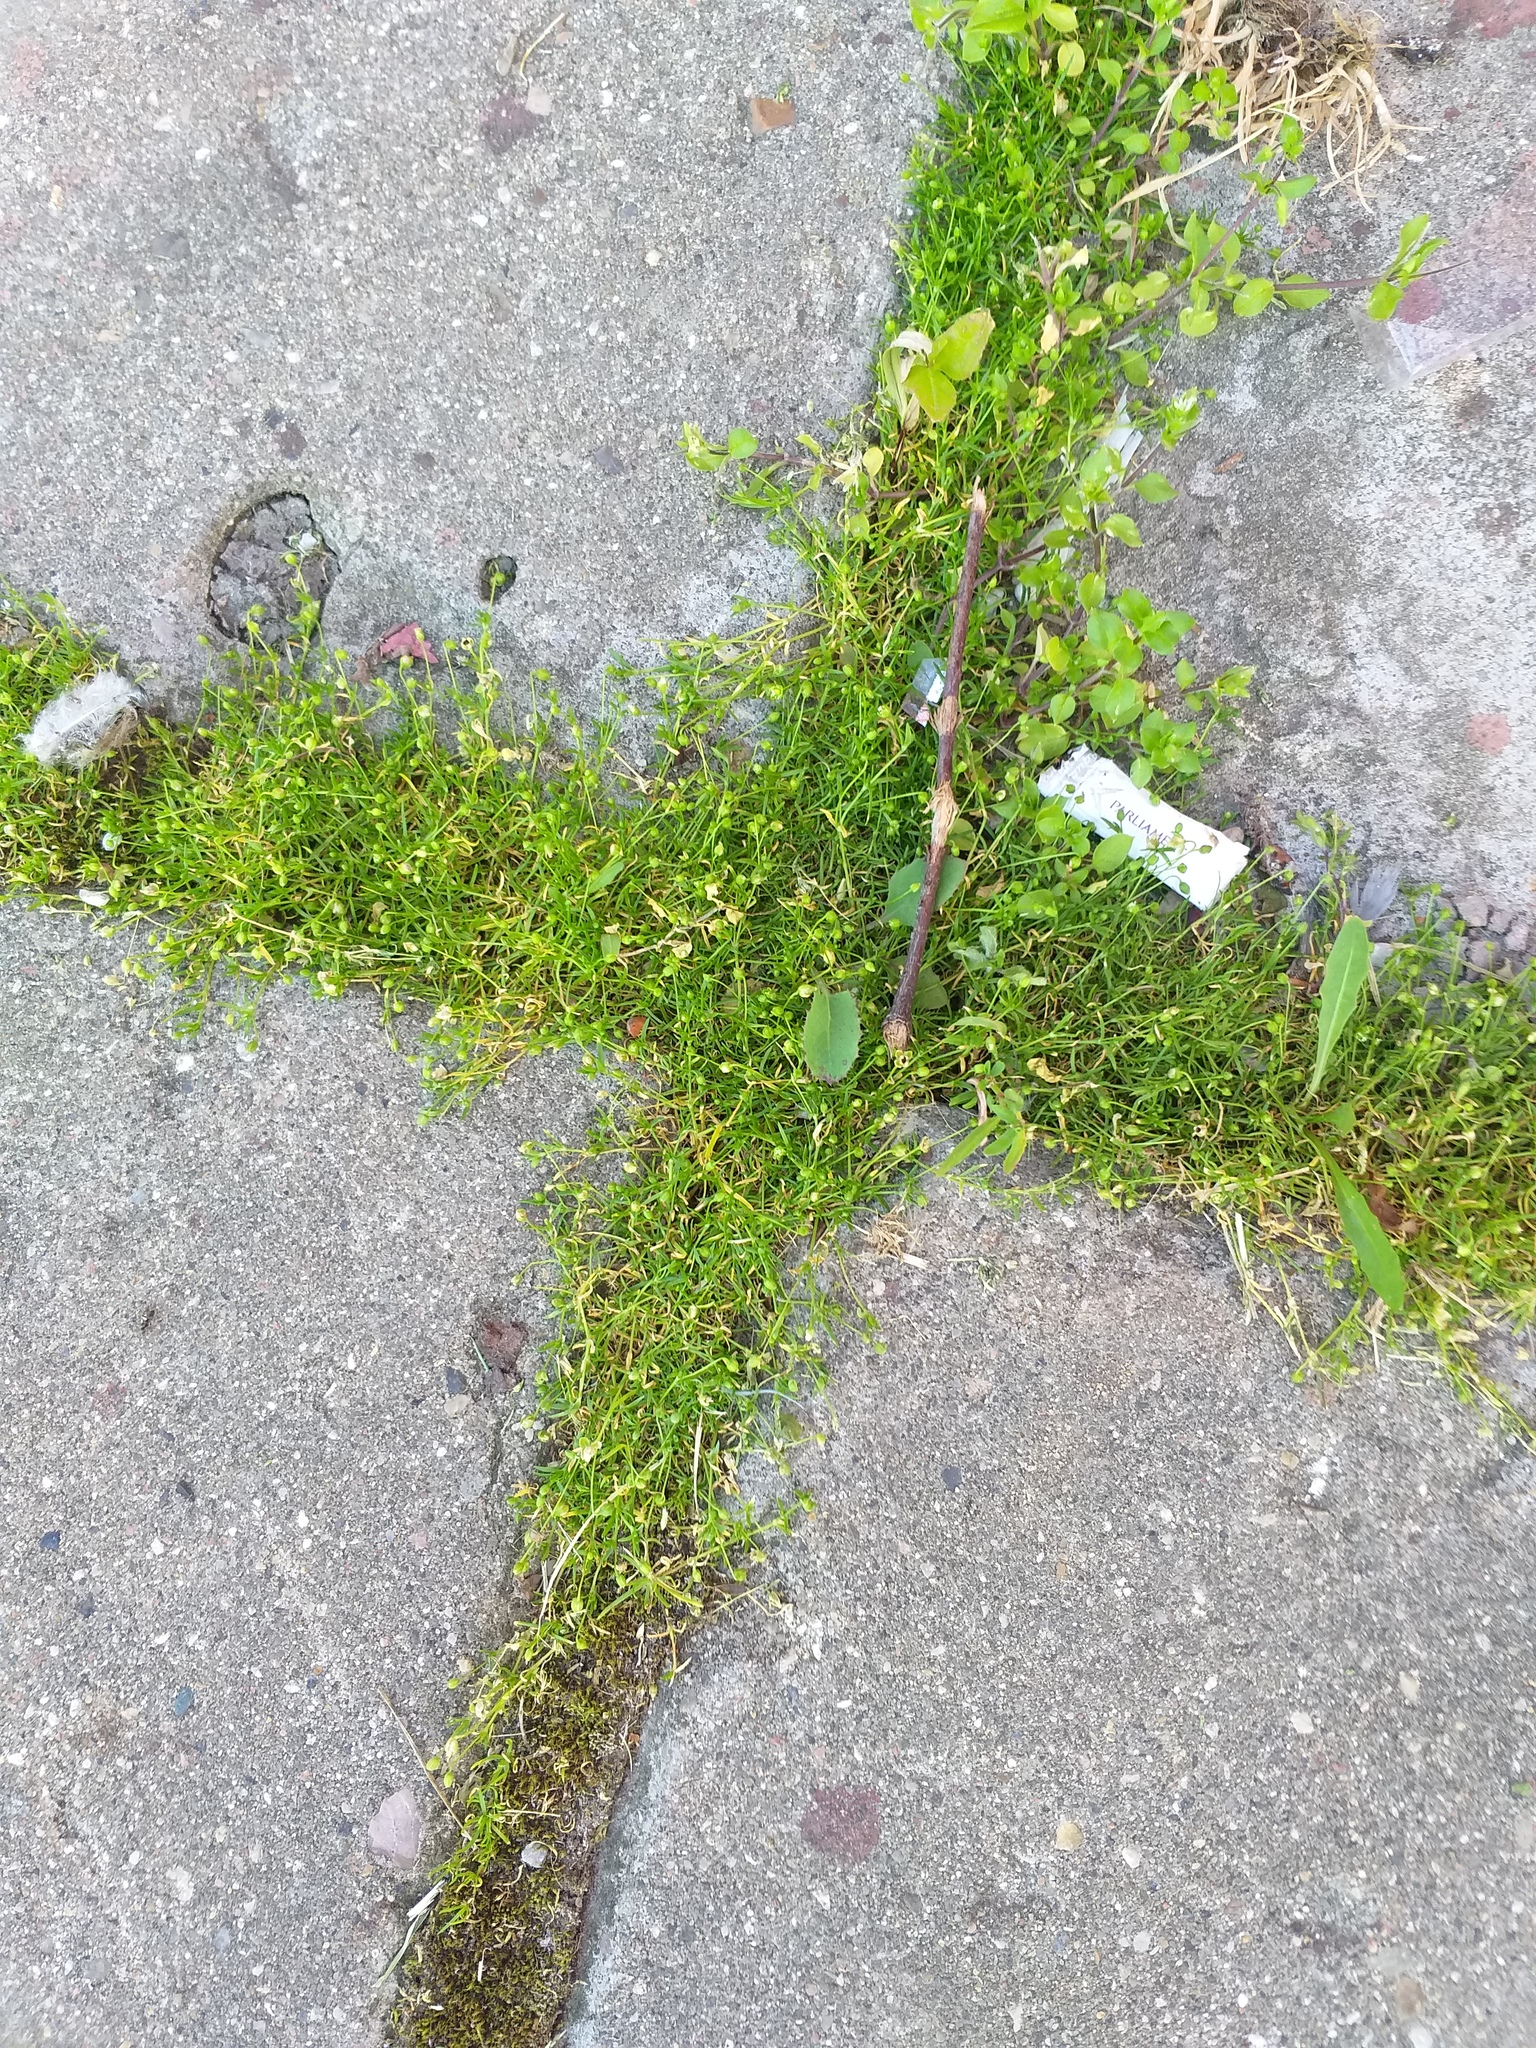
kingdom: Plantae
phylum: Tracheophyta
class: Magnoliopsida
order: Caryophyllales
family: Caryophyllaceae
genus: Sagina
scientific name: Sagina procumbens
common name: Procumbent pearlwort
